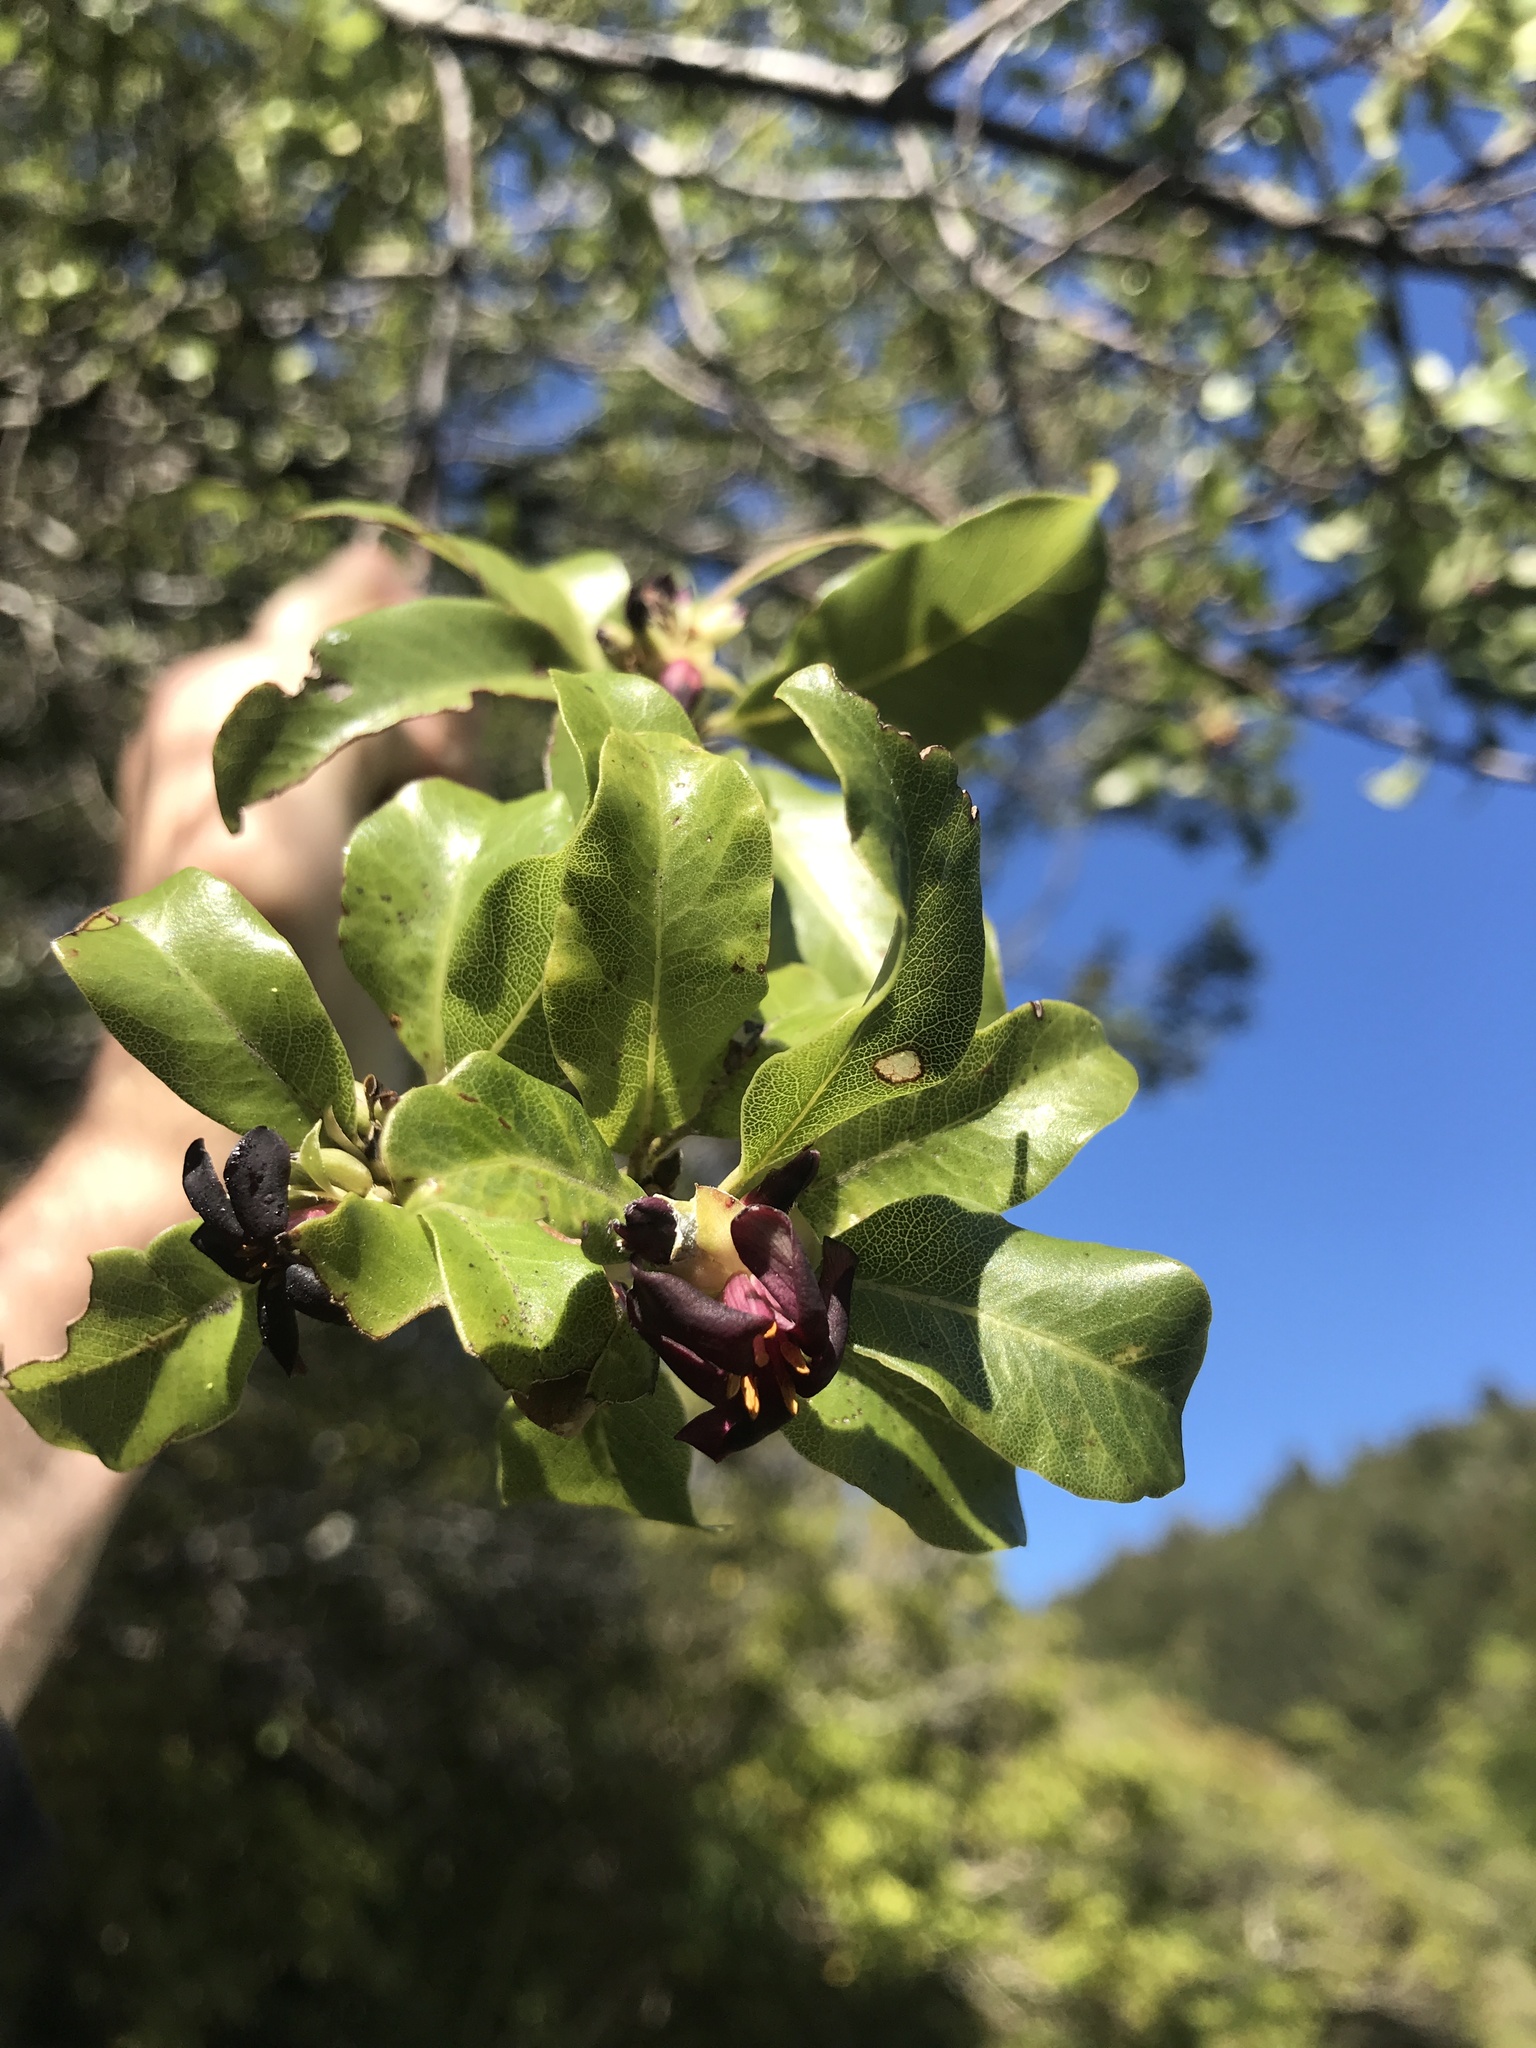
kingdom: Plantae
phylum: Tracheophyta
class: Magnoliopsida
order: Apiales
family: Pittosporaceae
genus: Pittosporum
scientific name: Pittosporum tenuifolium
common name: Kohuhu
